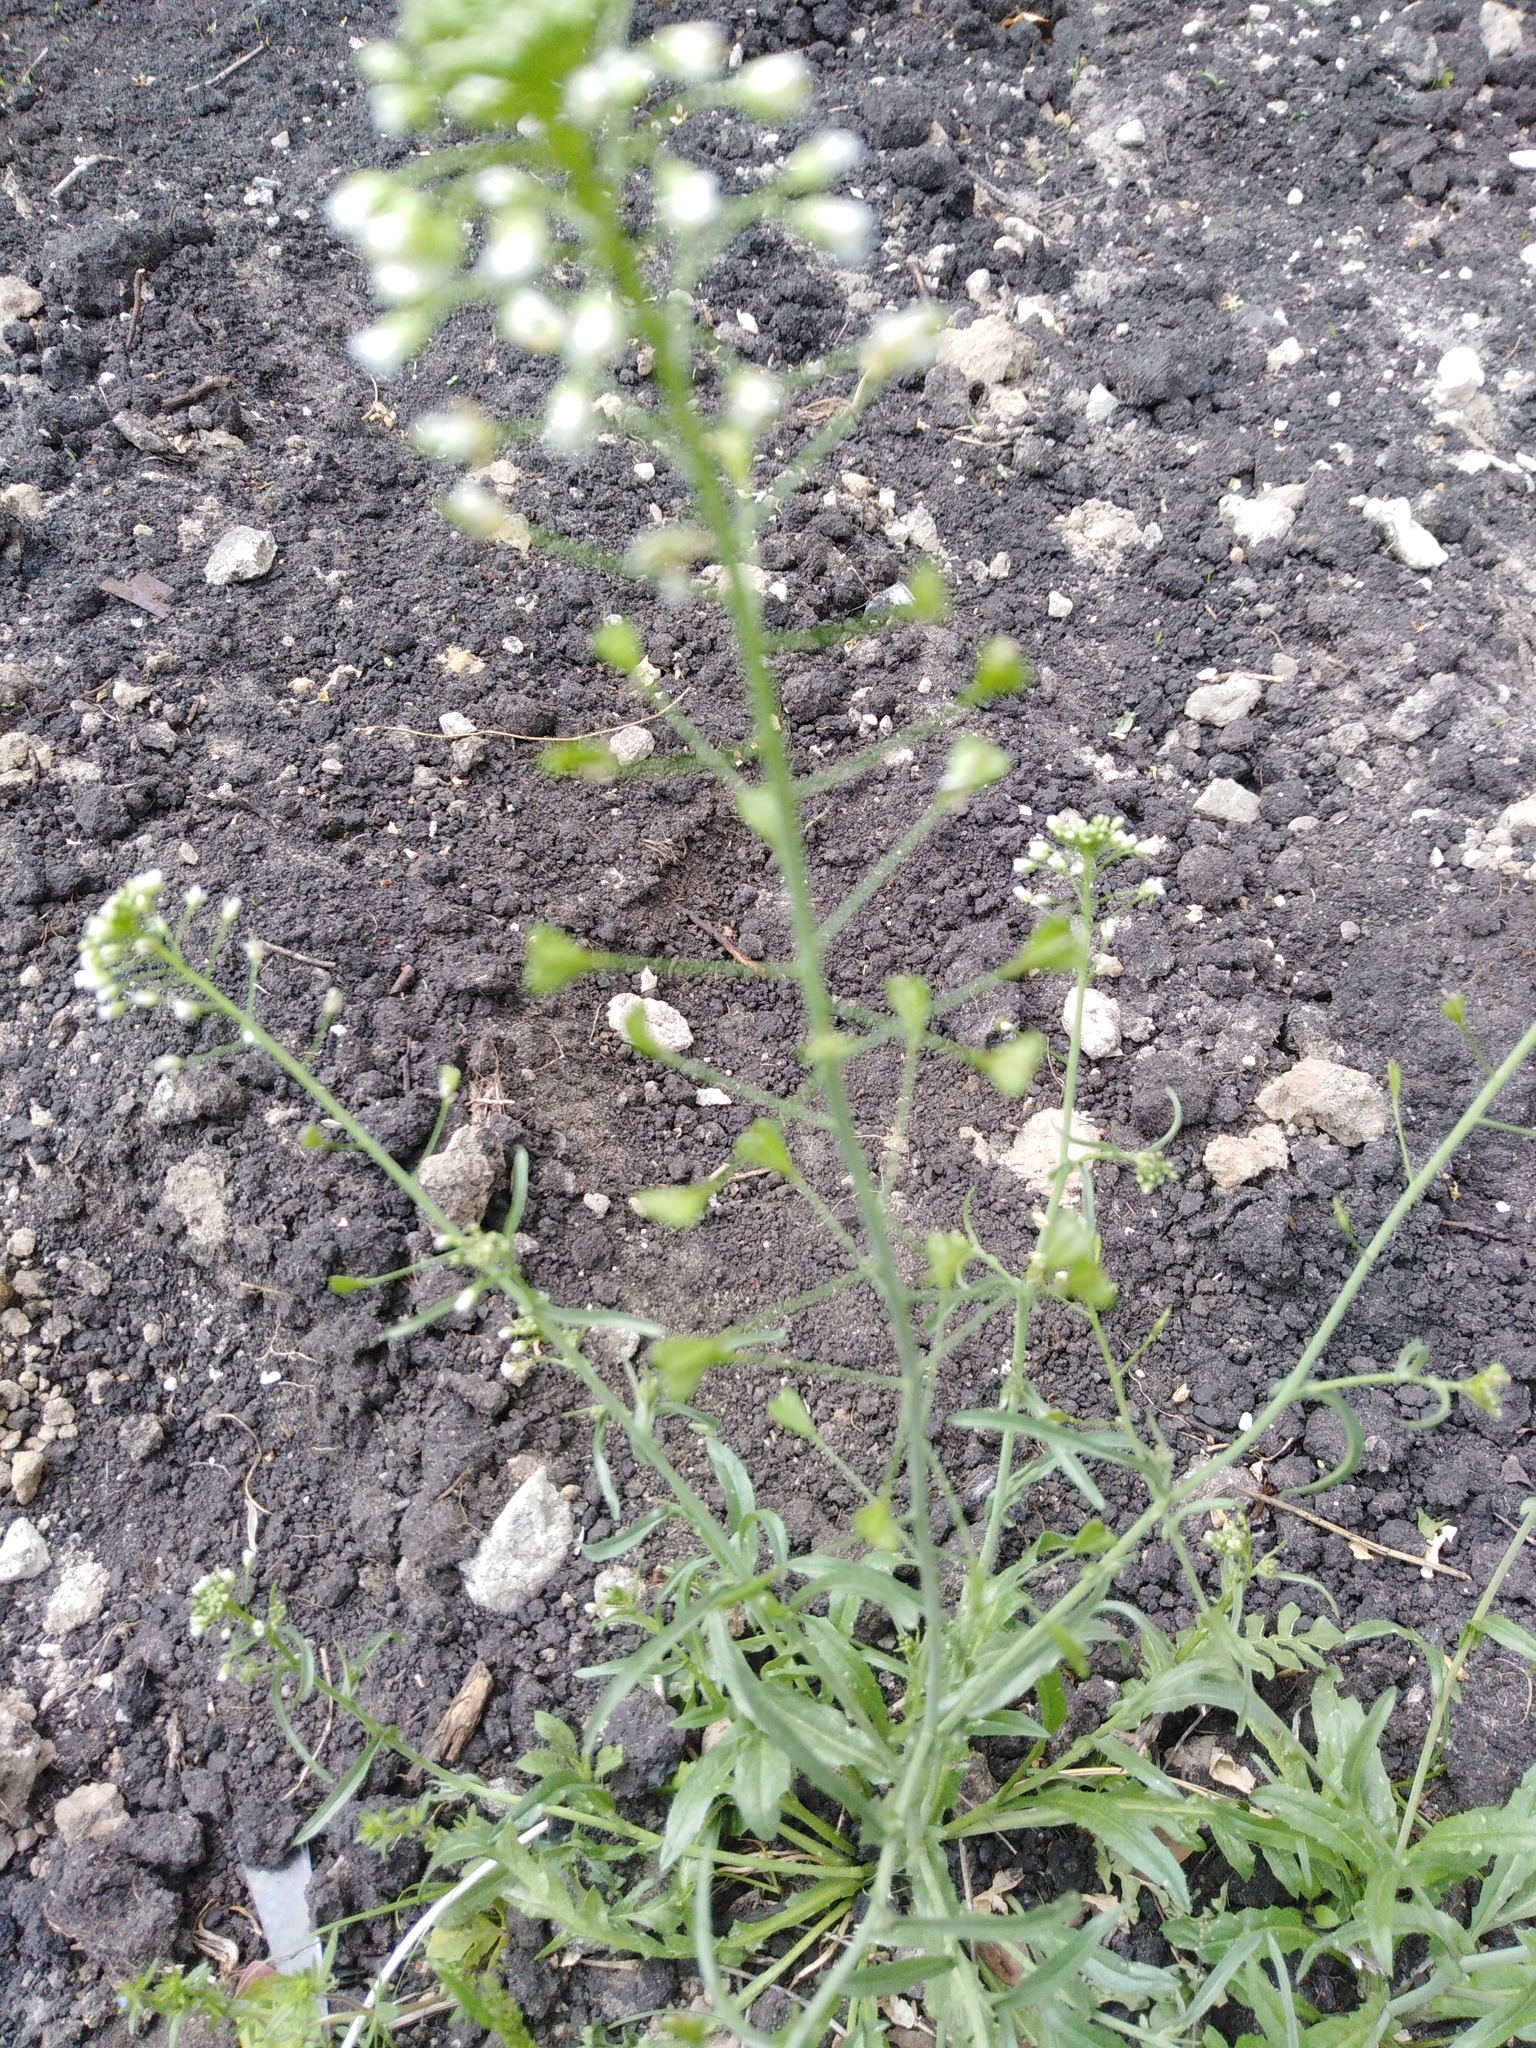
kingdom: Plantae
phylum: Tracheophyta
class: Magnoliopsida
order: Brassicales
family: Brassicaceae
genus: Capsella
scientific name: Capsella bursa-pastoris
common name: Shepherd's purse
